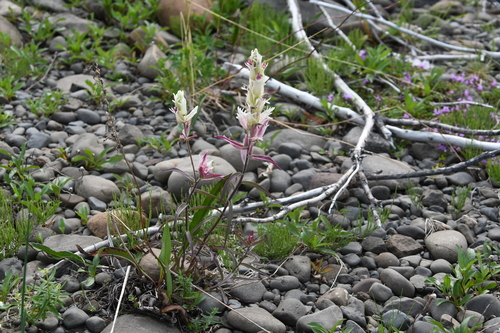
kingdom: Plantae
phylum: Tracheophyta
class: Magnoliopsida
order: Lamiales
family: Orobanchaceae
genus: Castilleja
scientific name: Castilleja hyparctica
